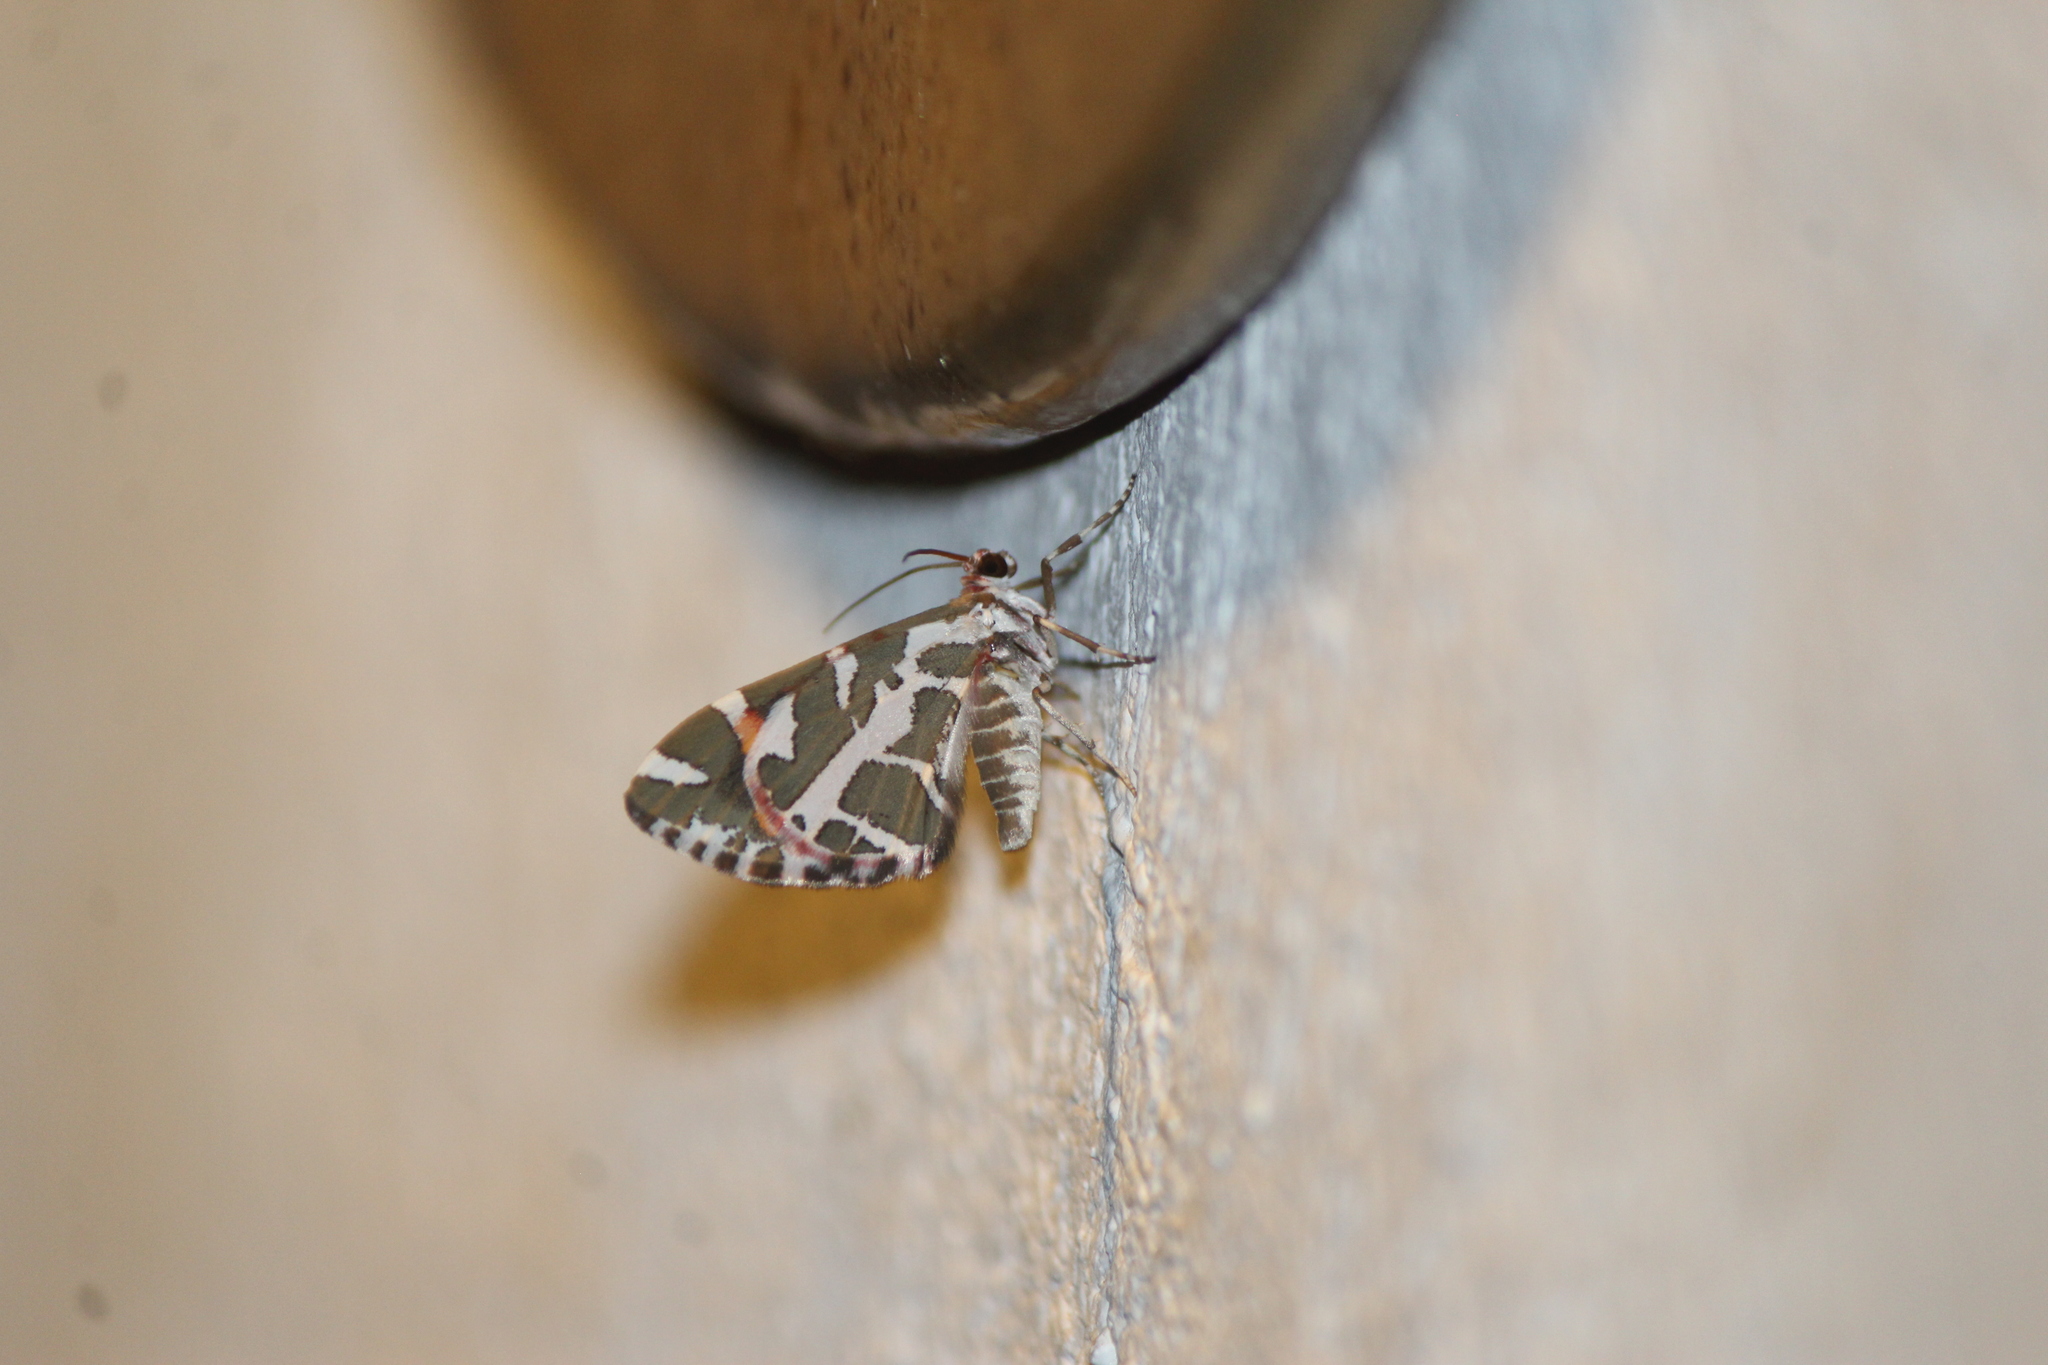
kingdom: Animalia
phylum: Arthropoda
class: Insecta
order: Lepidoptera
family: Geometridae
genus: Stamnodes
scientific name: Stamnodes
